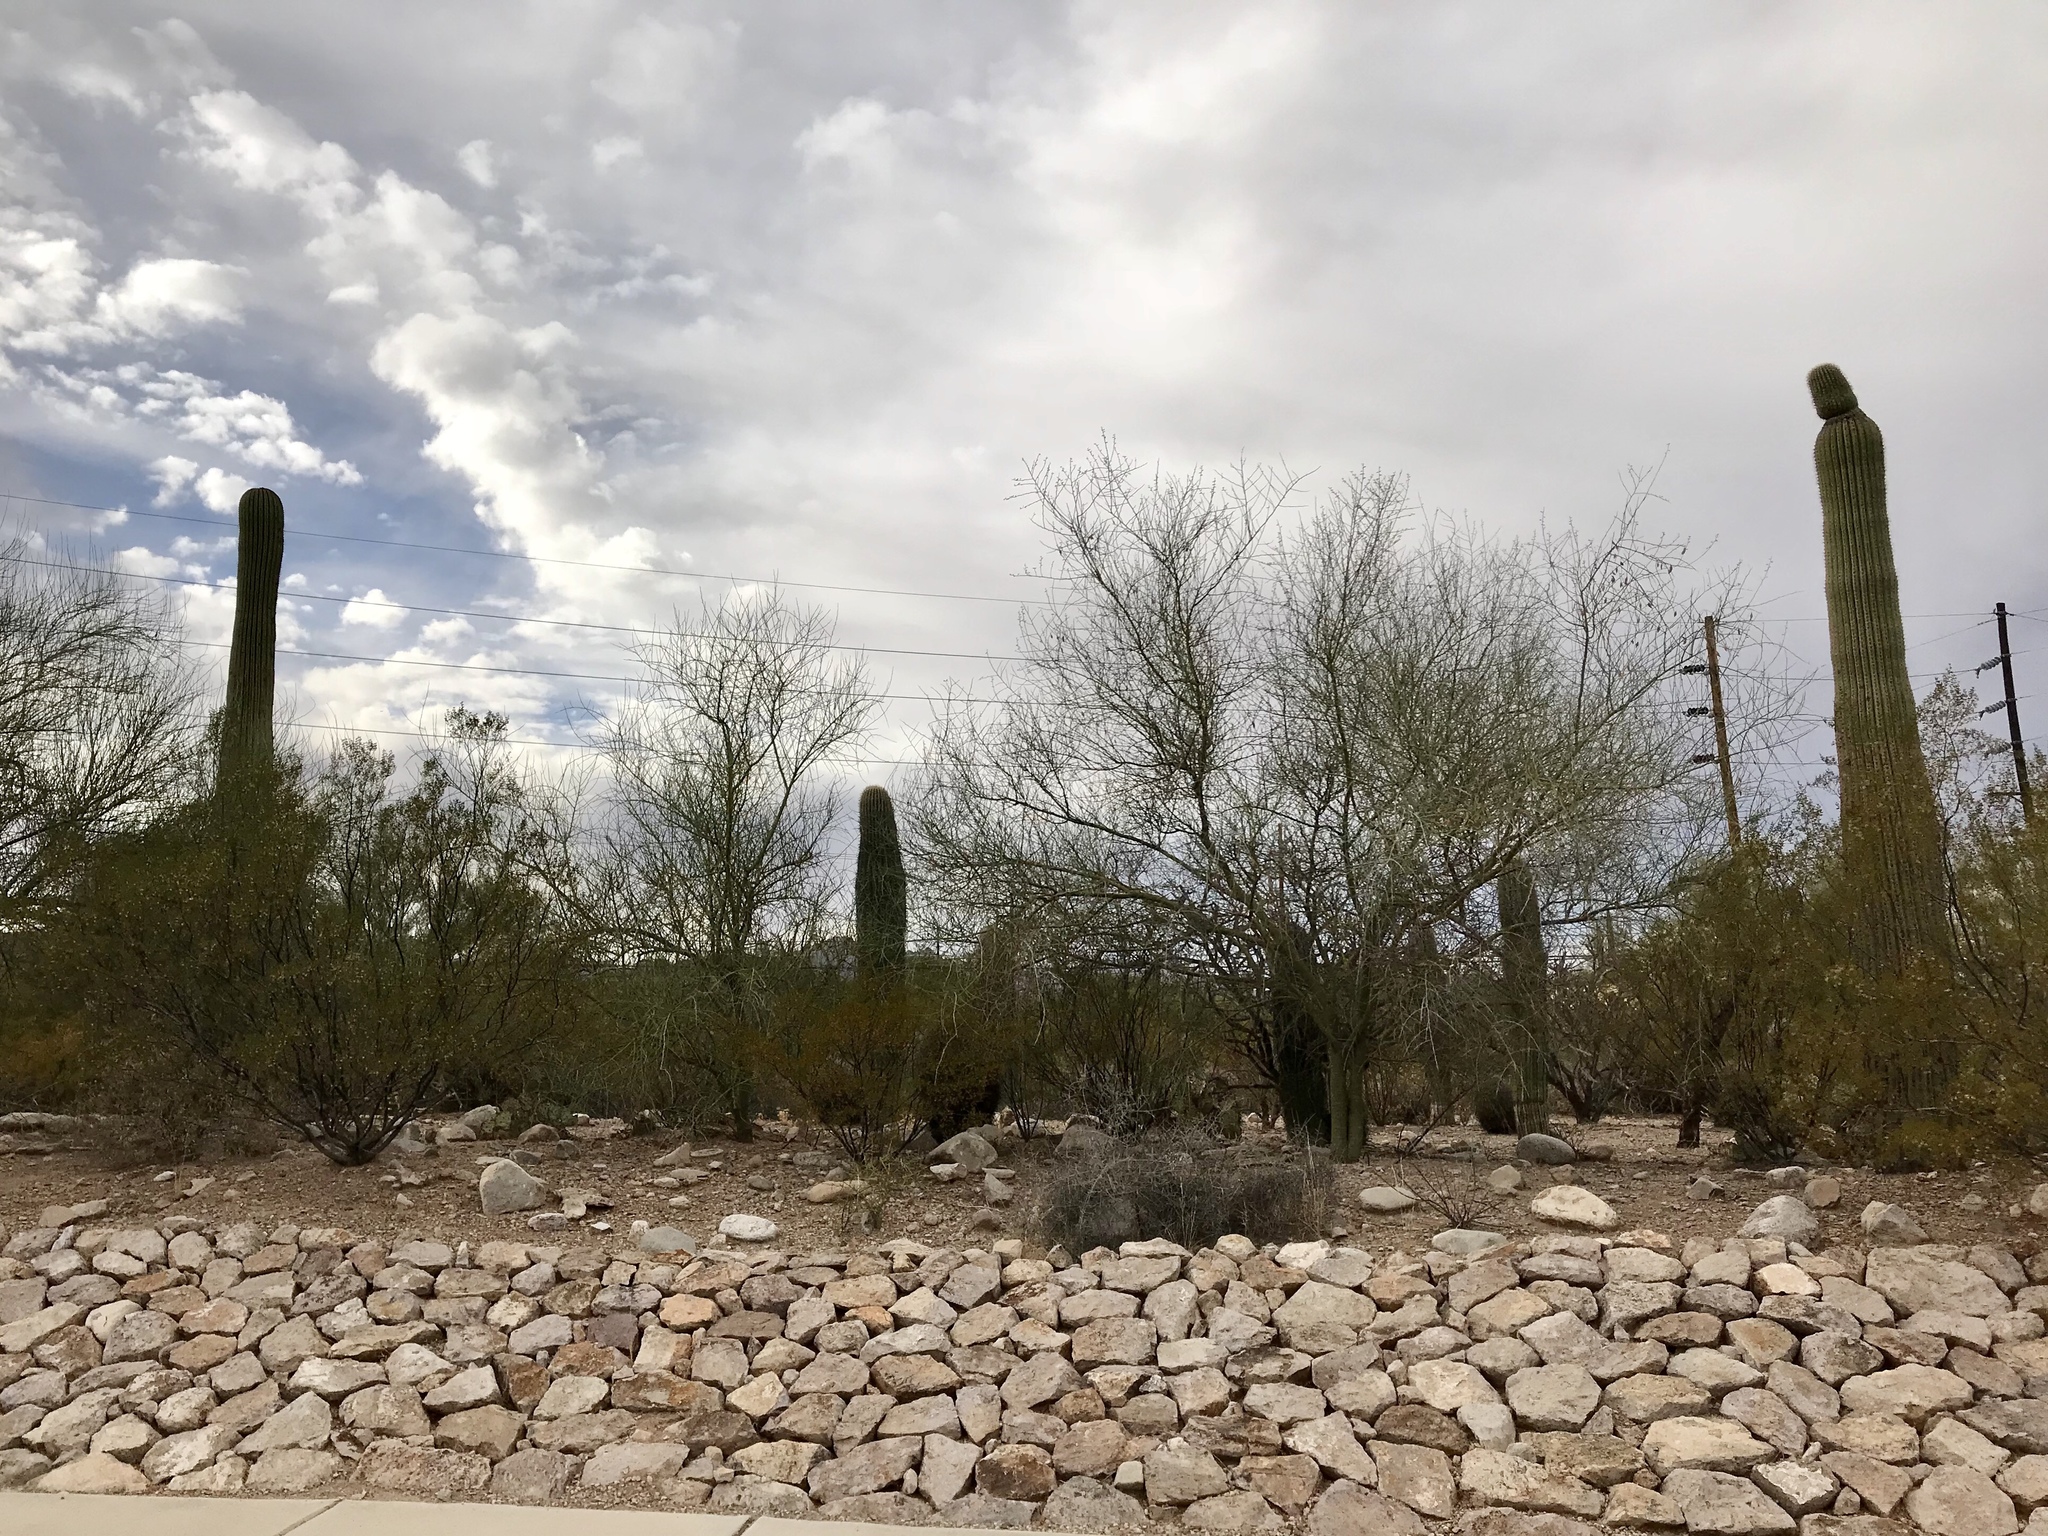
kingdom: Plantae
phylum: Tracheophyta
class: Magnoliopsida
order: Caryophyllales
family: Cactaceae
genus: Carnegiea
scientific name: Carnegiea gigantea
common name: Saguaro
